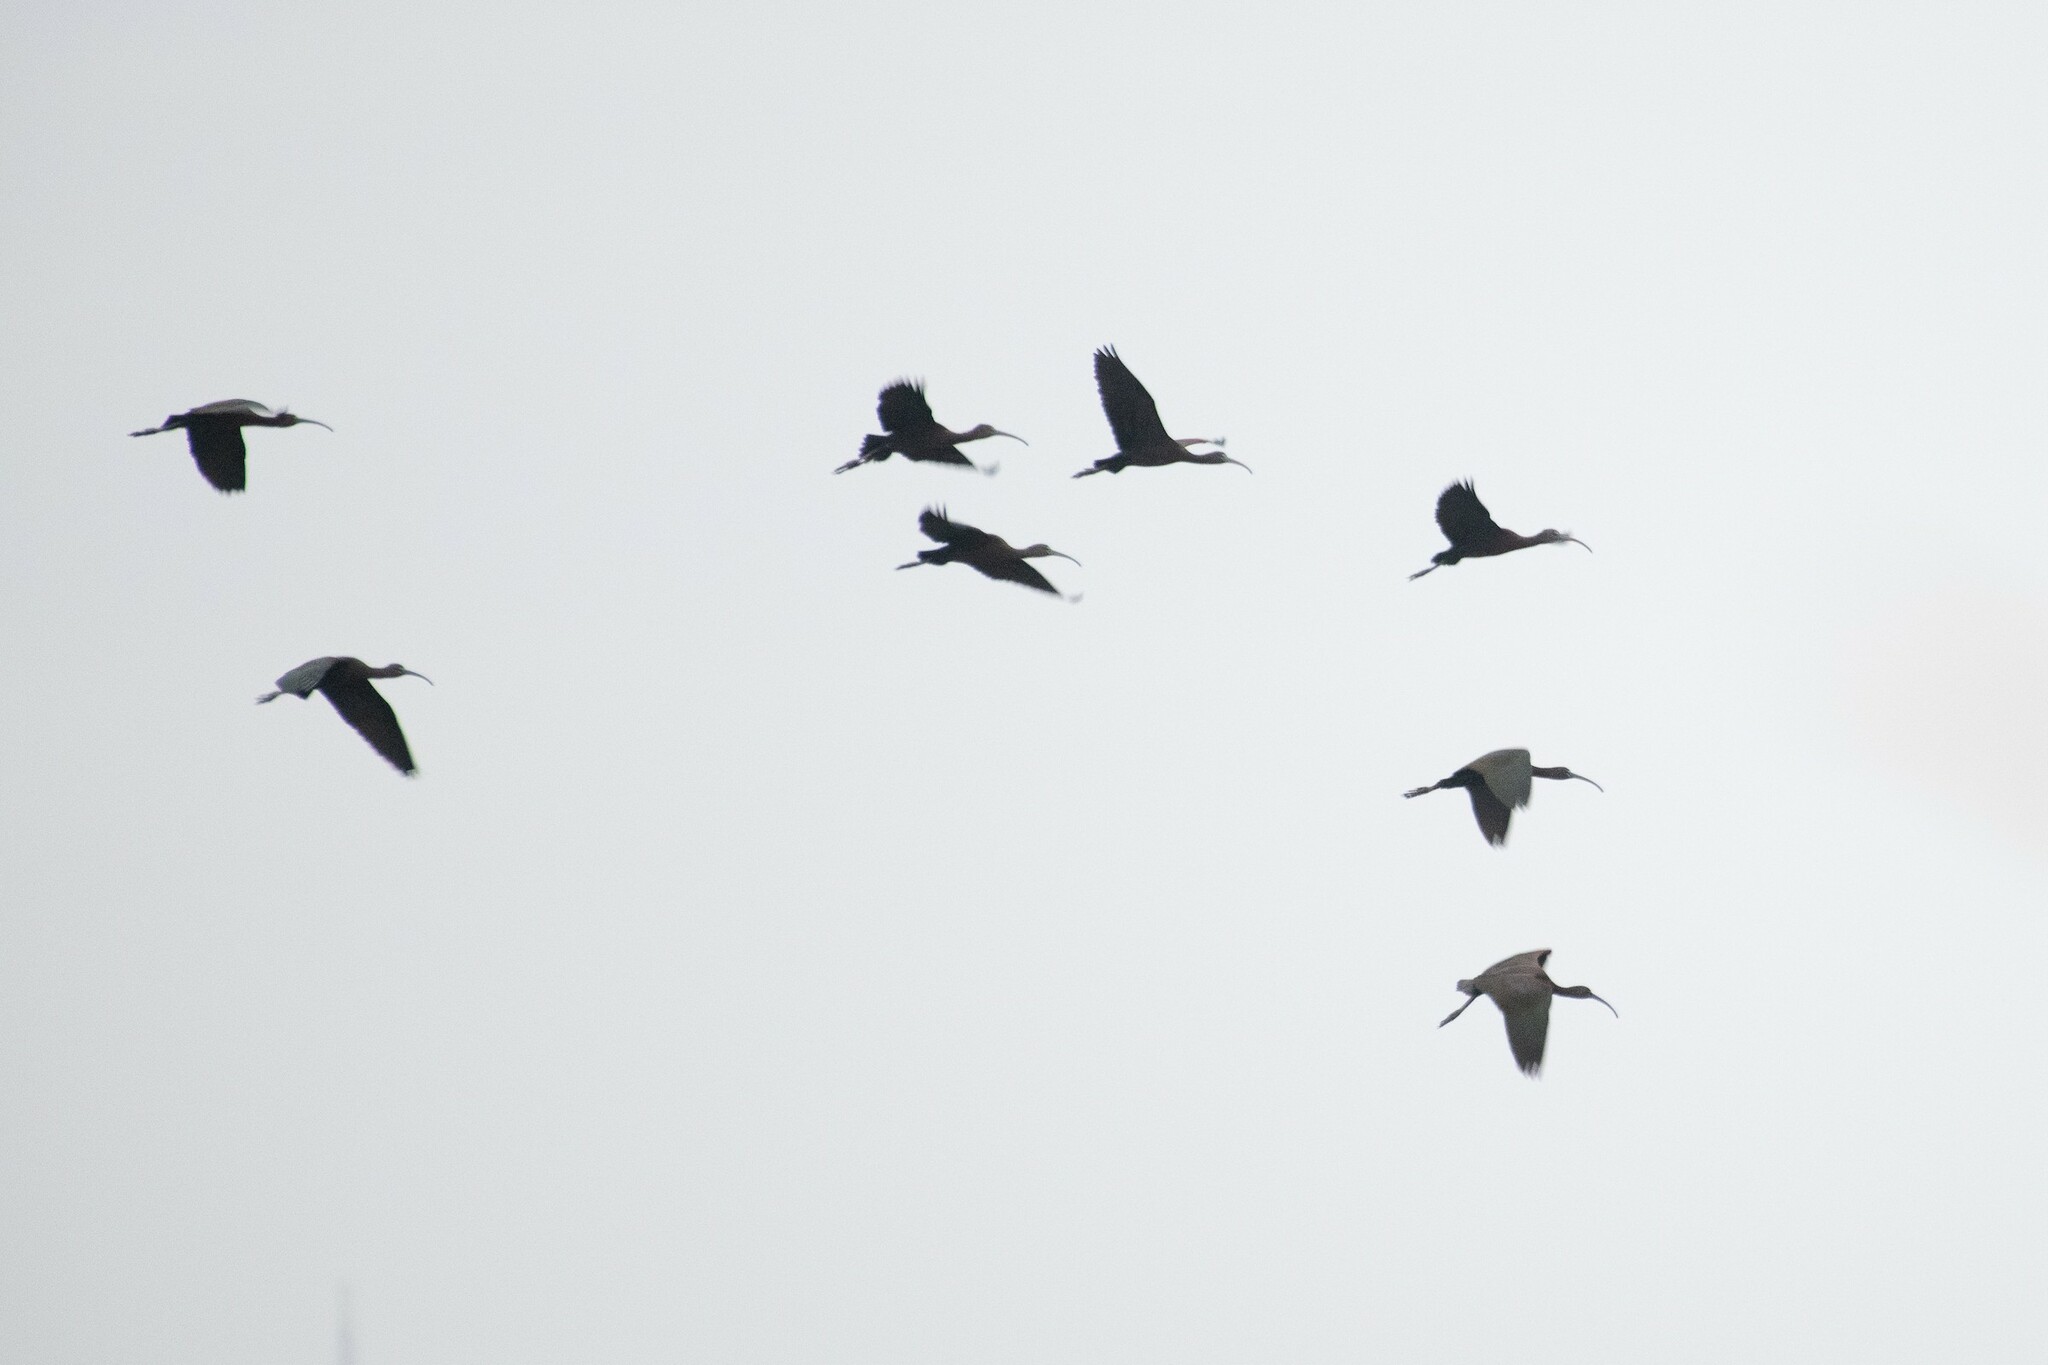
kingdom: Animalia
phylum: Chordata
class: Aves
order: Pelecaniformes
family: Threskiornithidae
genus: Plegadis
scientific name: Plegadis falcinellus
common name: Glossy ibis
